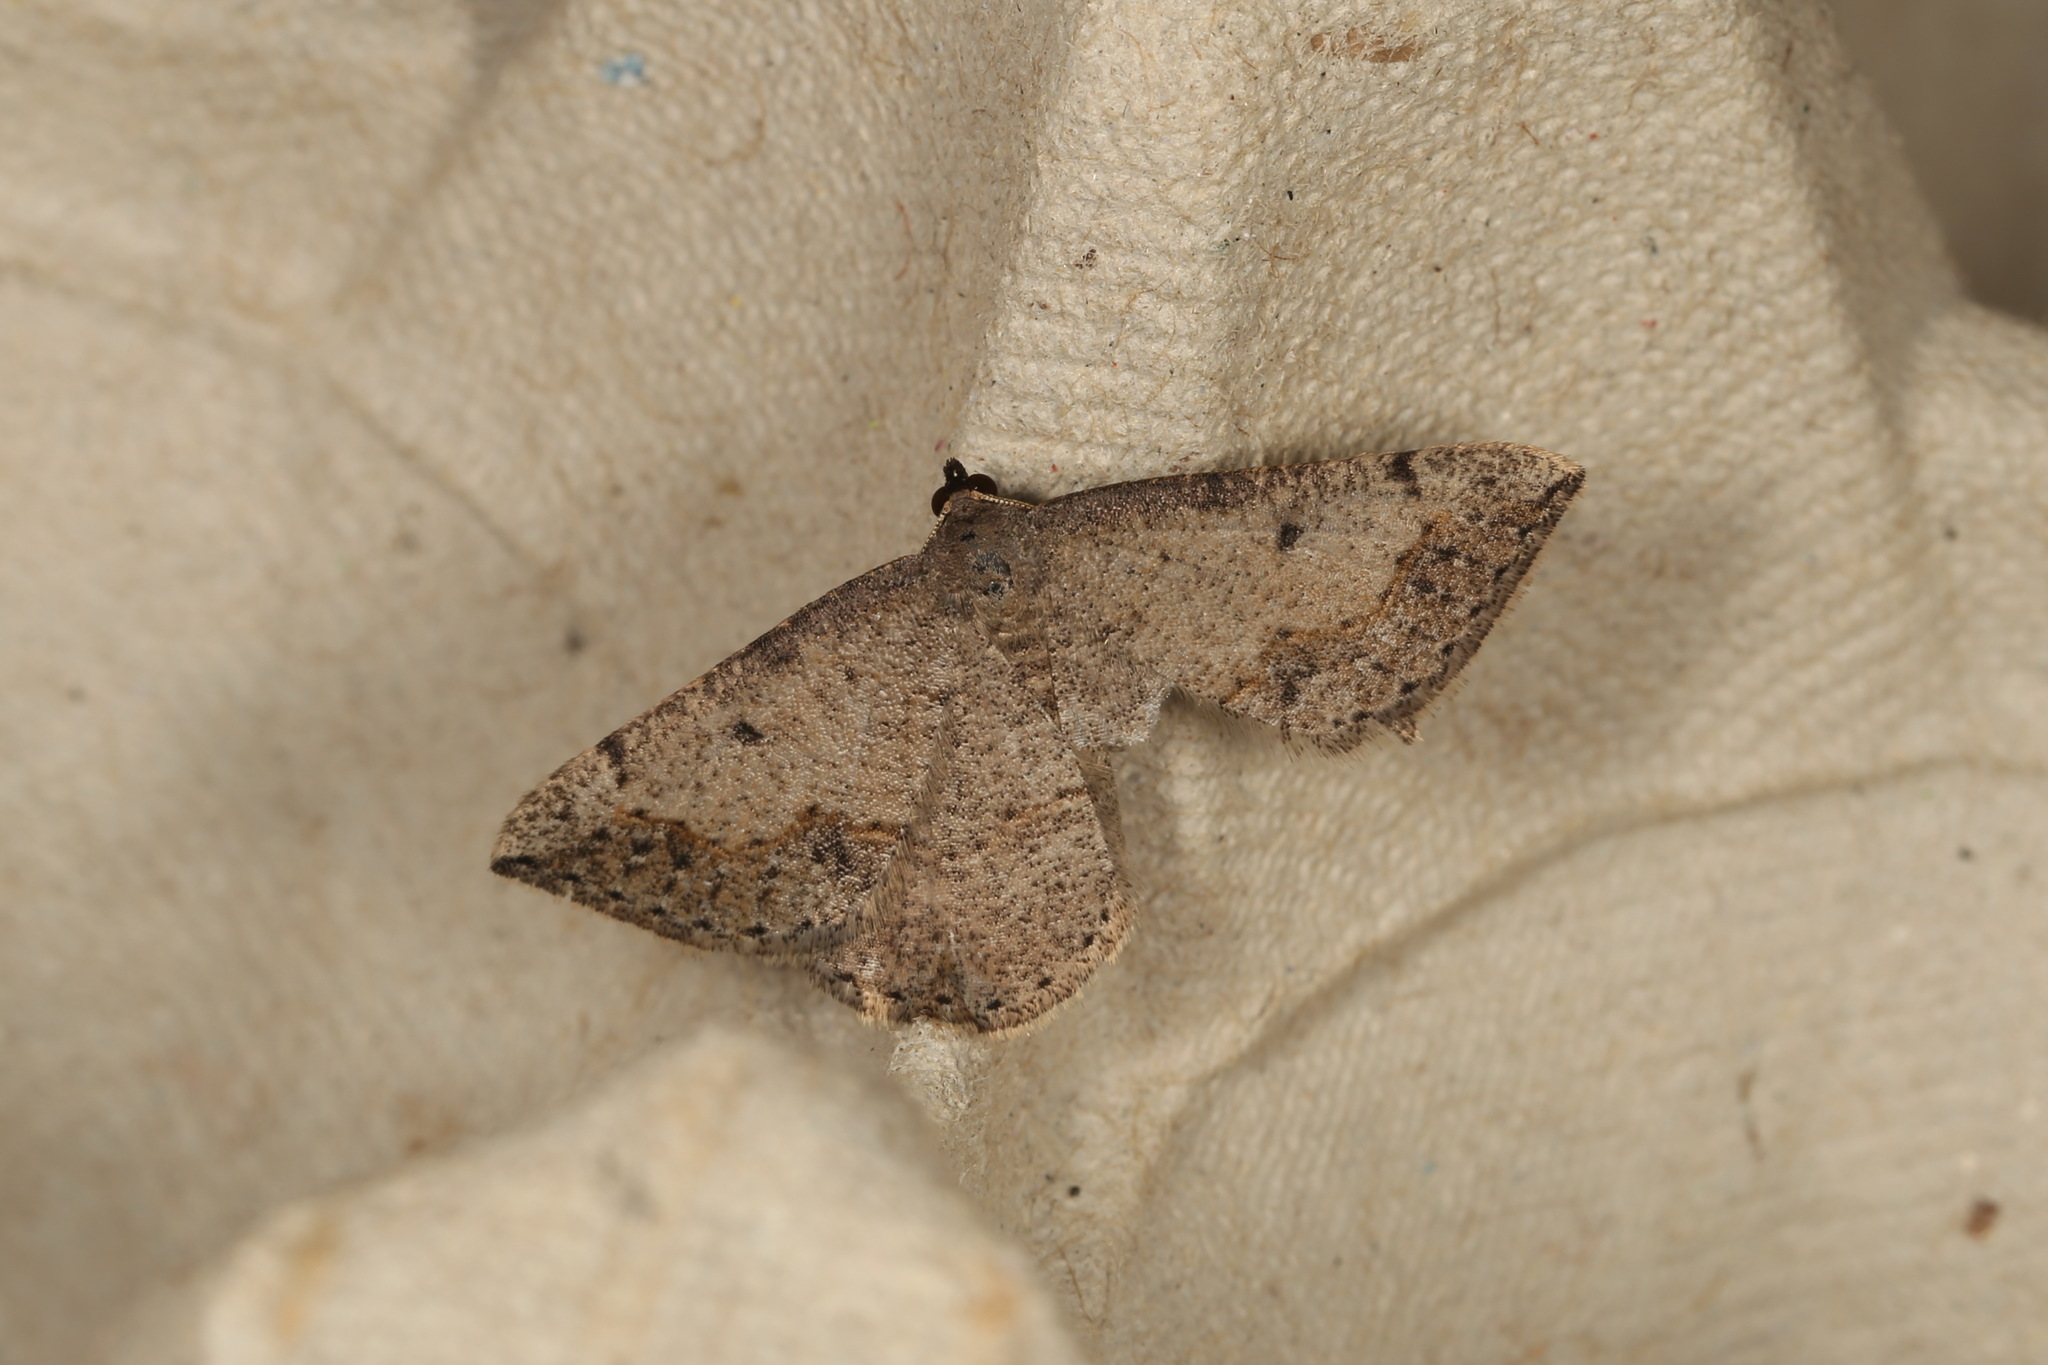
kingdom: Animalia
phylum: Arthropoda
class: Insecta
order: Lepidoptera
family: Geometridae
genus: Taxeotis
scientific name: Taxeotis intextata
